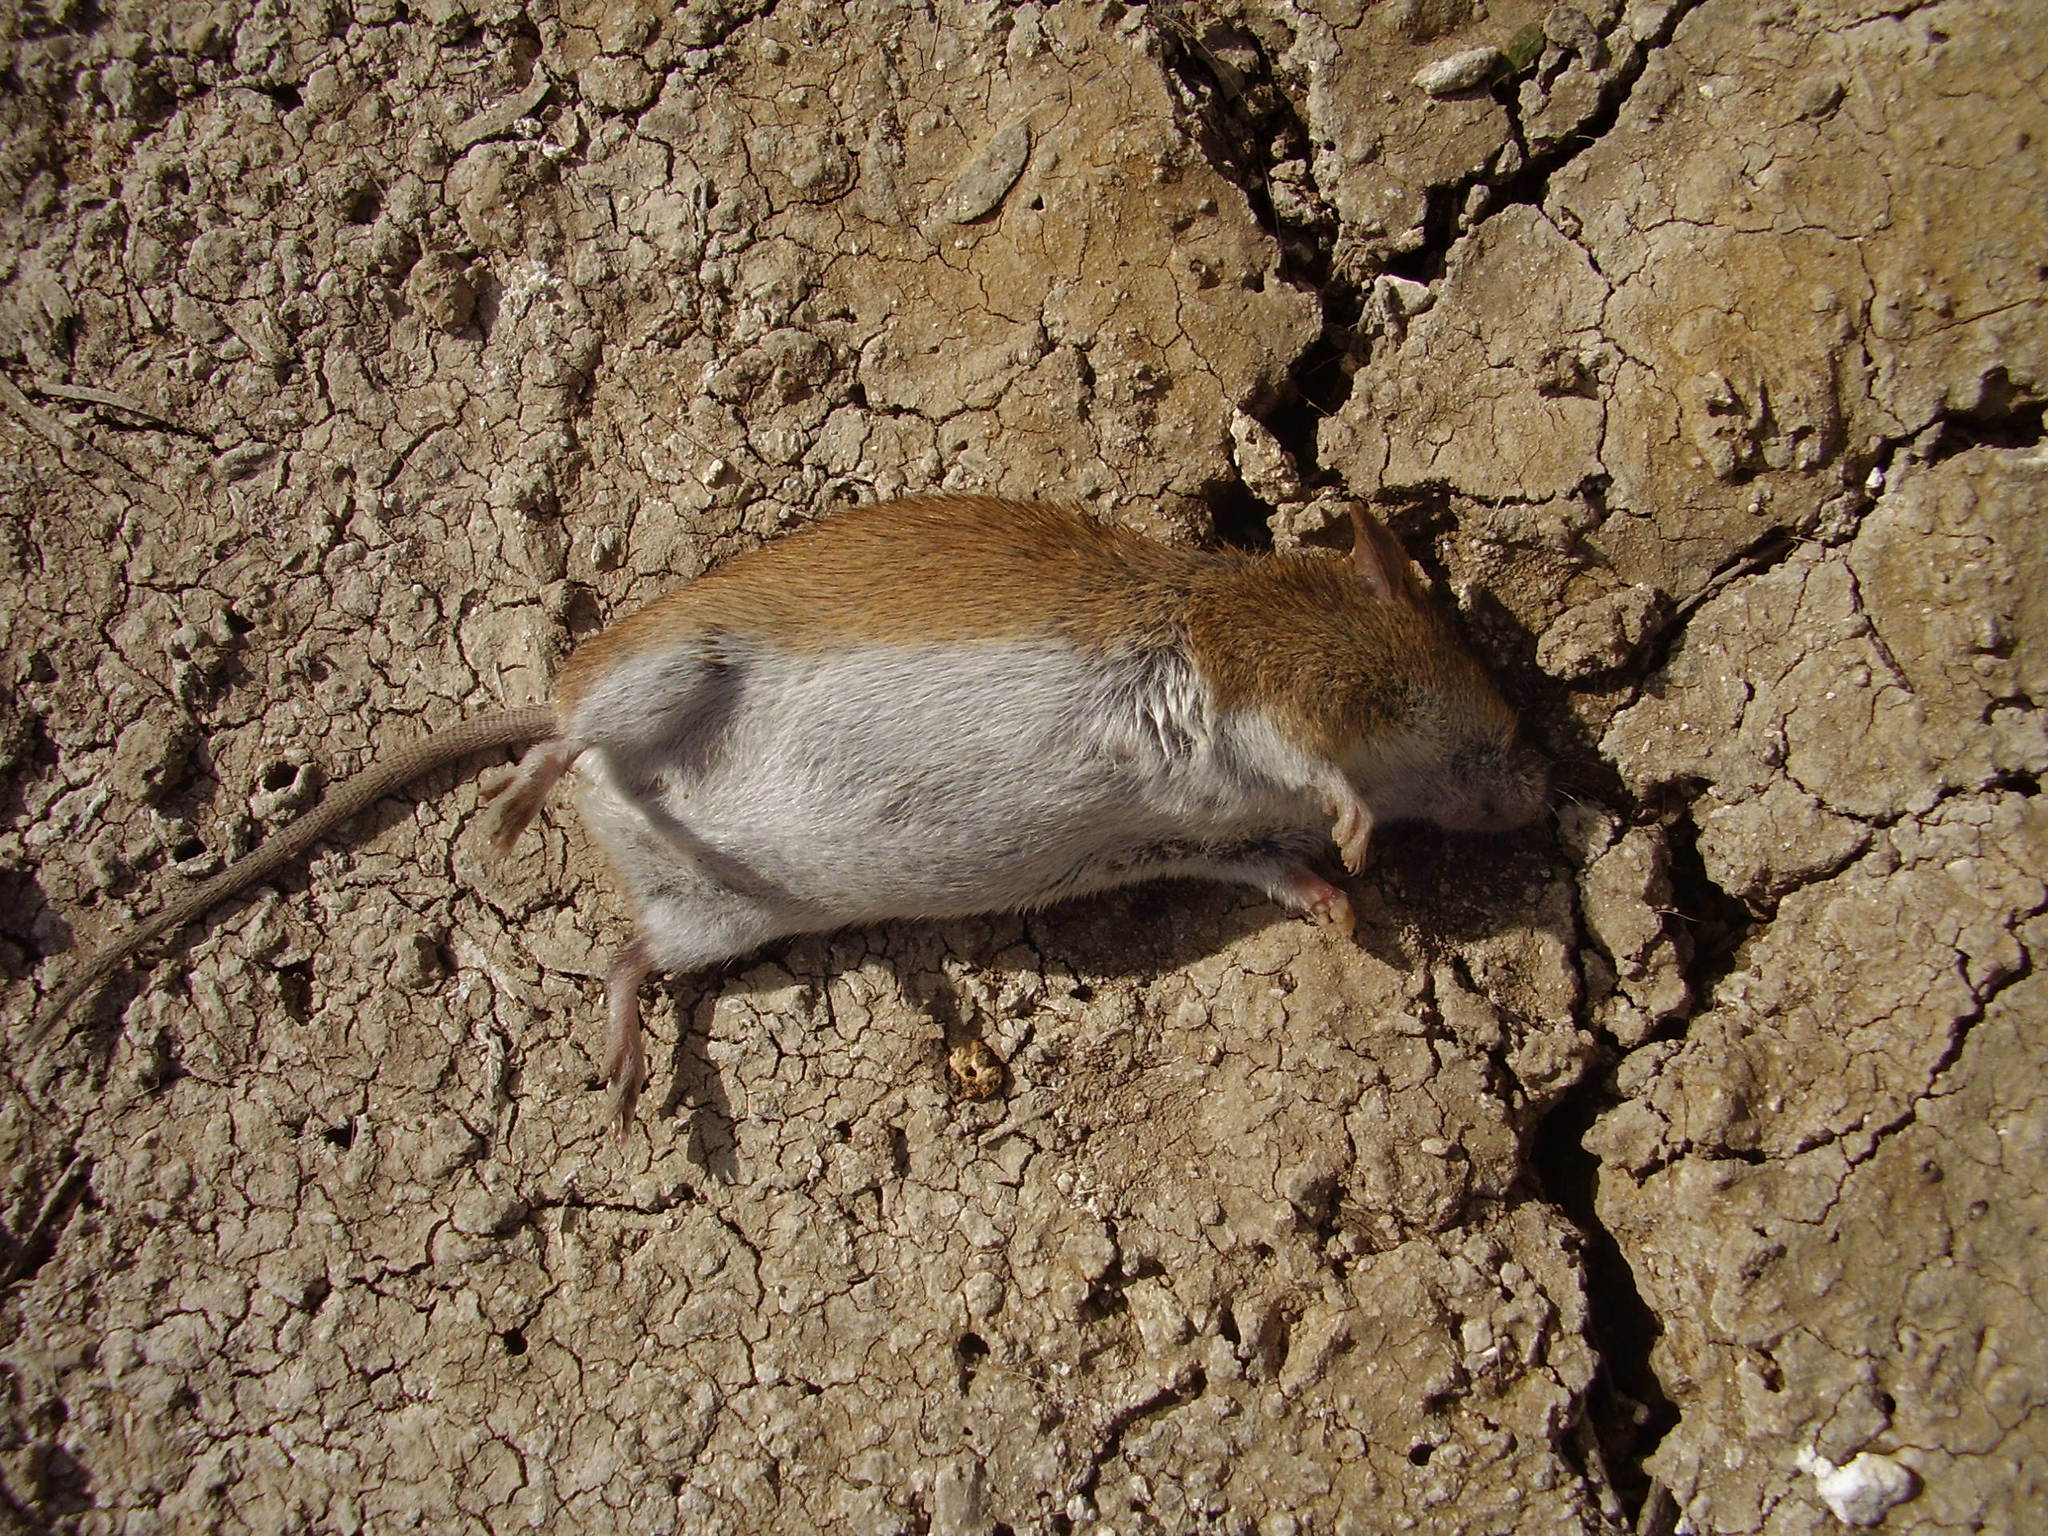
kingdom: Animalia
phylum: Chordata
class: Mammalia
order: Rodentia
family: Muridae
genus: Apodemus
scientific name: Apodemus agrarius
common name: Striped field mouse
